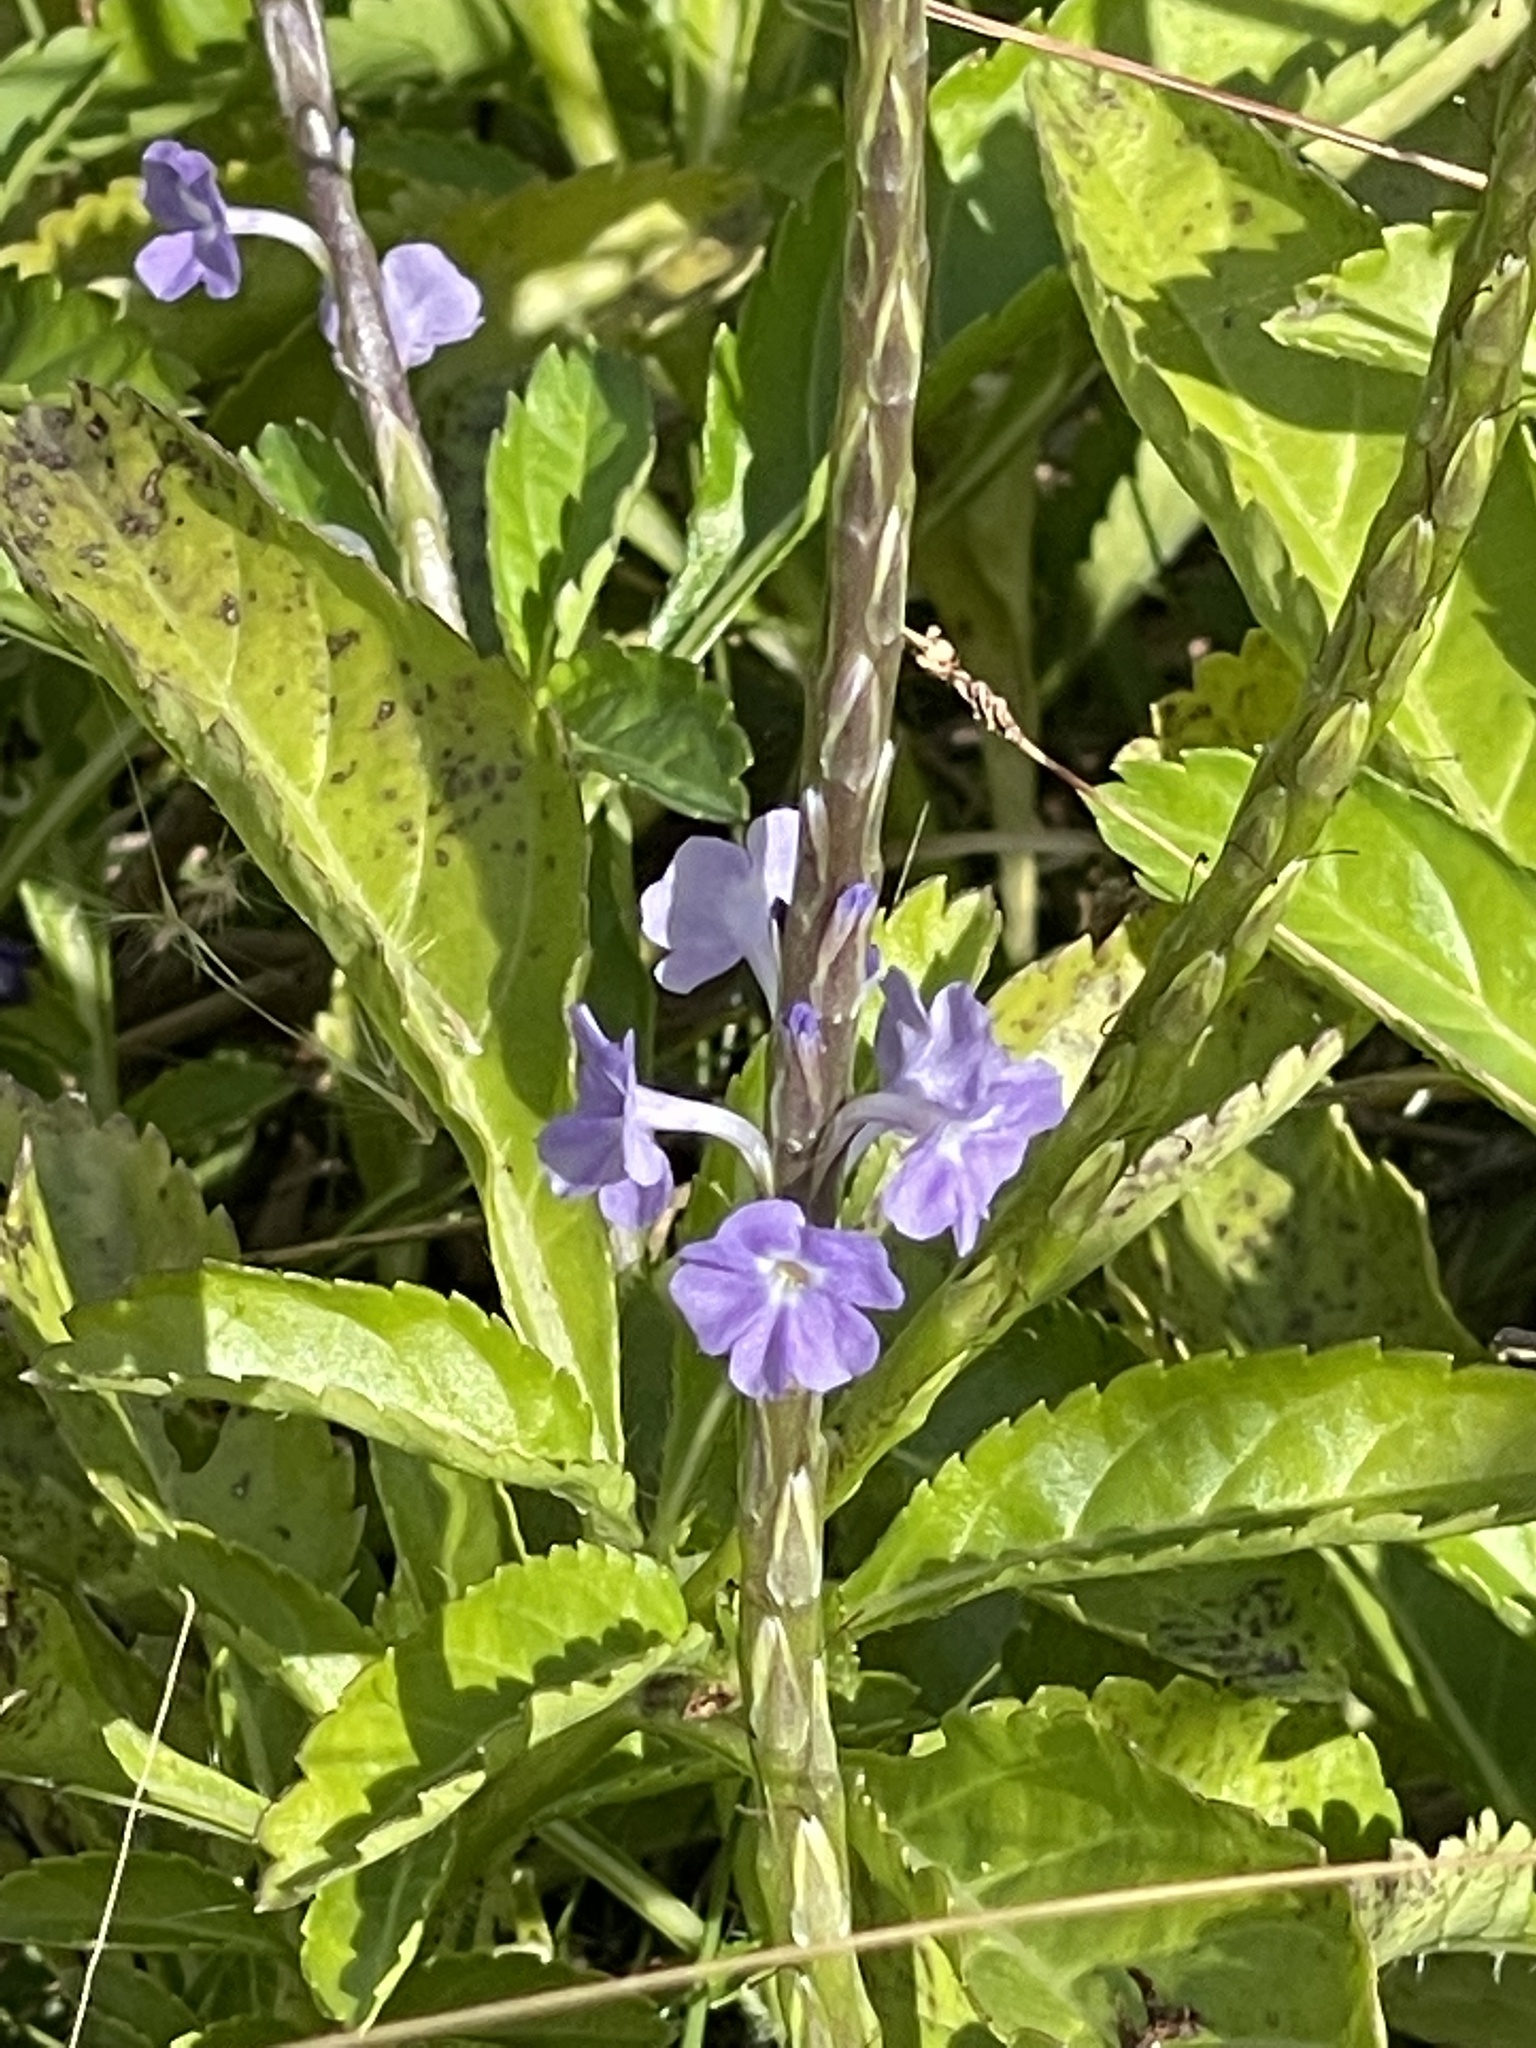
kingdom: Plantae
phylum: Tracheophyta
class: Magnoliopsida
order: Lamiales
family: Verbenaceae
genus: Stachytarpheta
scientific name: Stachytarpheta jamaicensis
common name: Light-blue snakeweed
